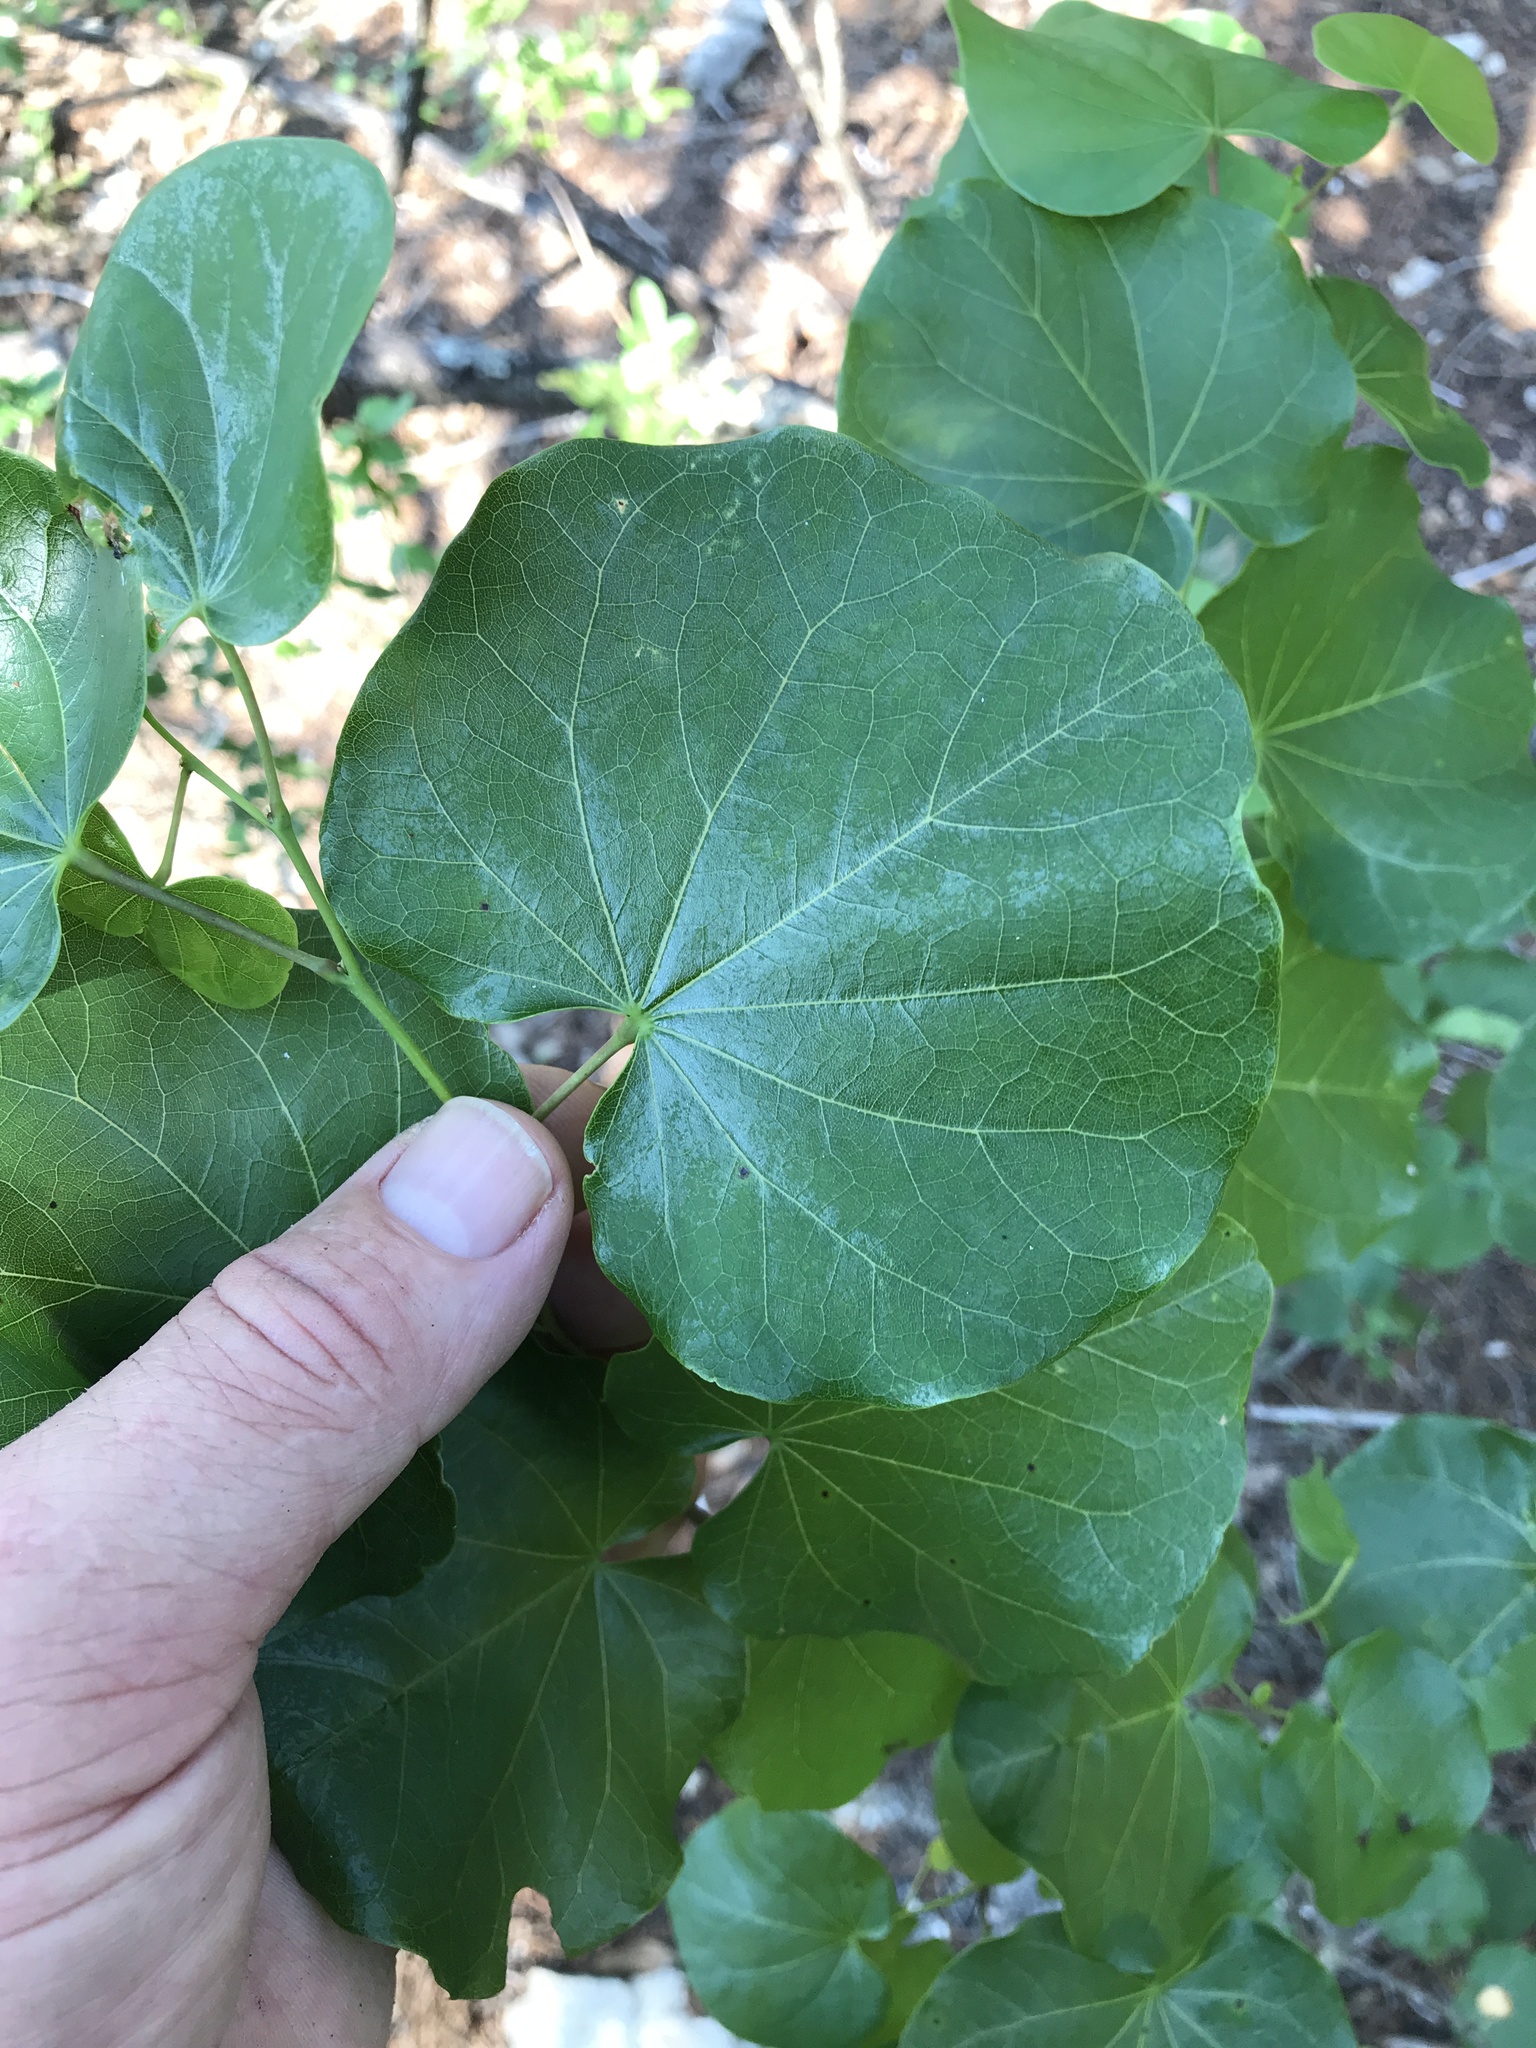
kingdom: Plantae
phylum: Tracheophyta
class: Magnoliopsida
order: Fabales
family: Fabaceae
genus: Cercis
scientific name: Cercis canadensis
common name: Eastern redbud
